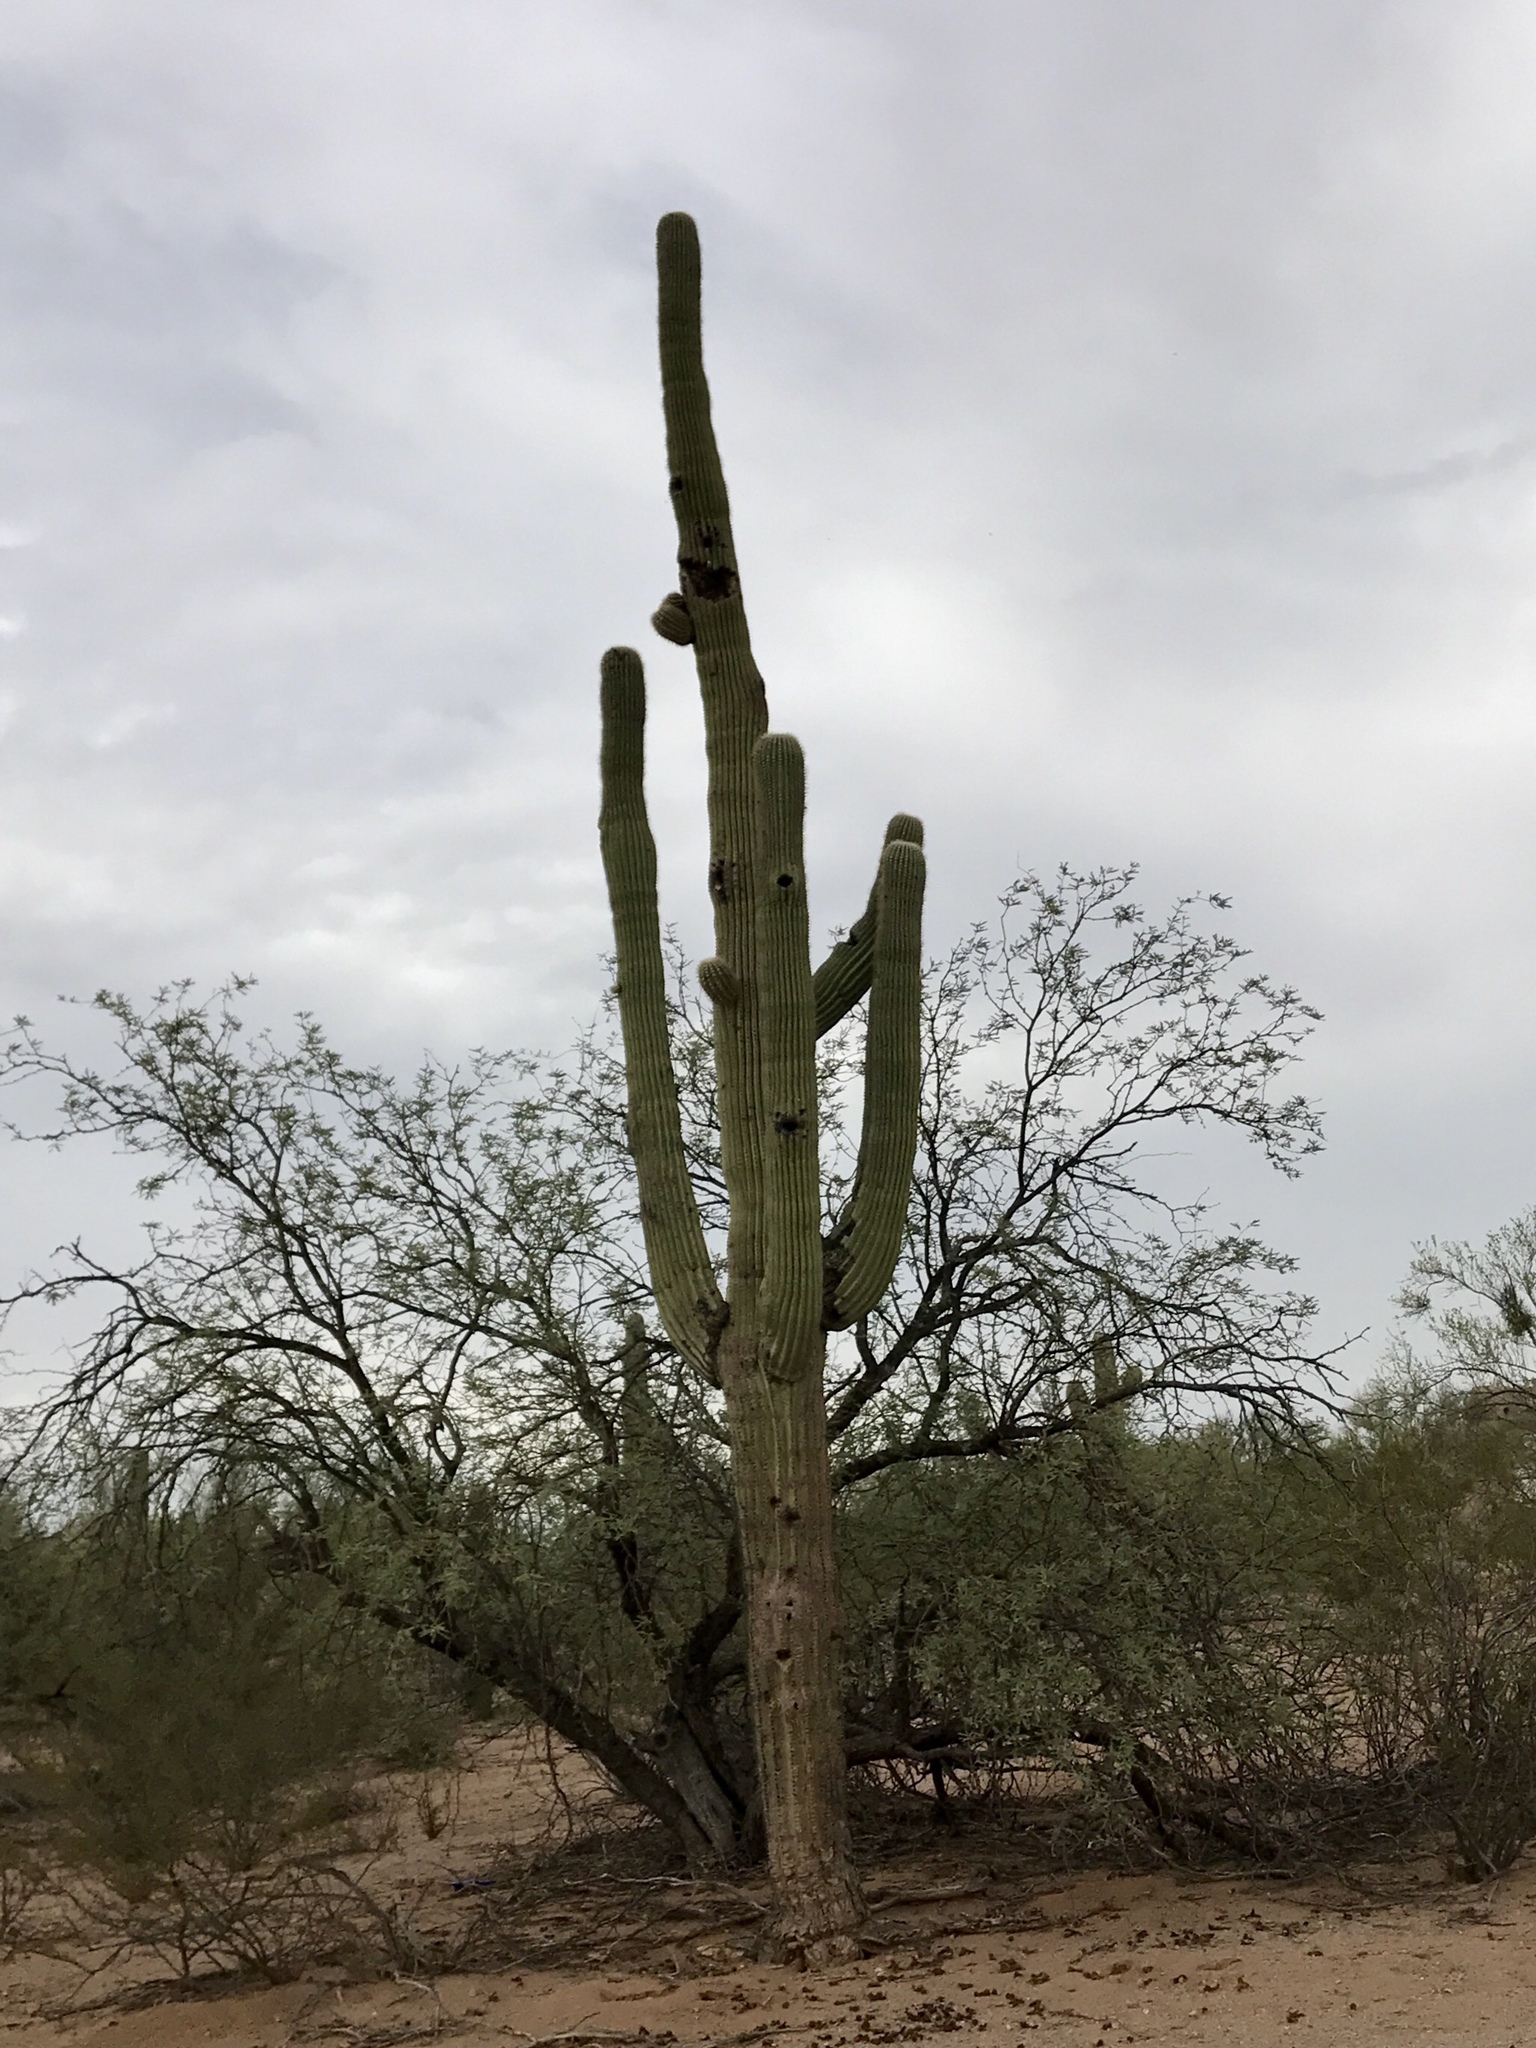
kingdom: Plantae
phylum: Tracheophyta
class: Magnoliopsida
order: Caryophyllales
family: Cactaceae
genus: Carnegiea
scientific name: Carnegiea gigantea
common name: Saguaro
